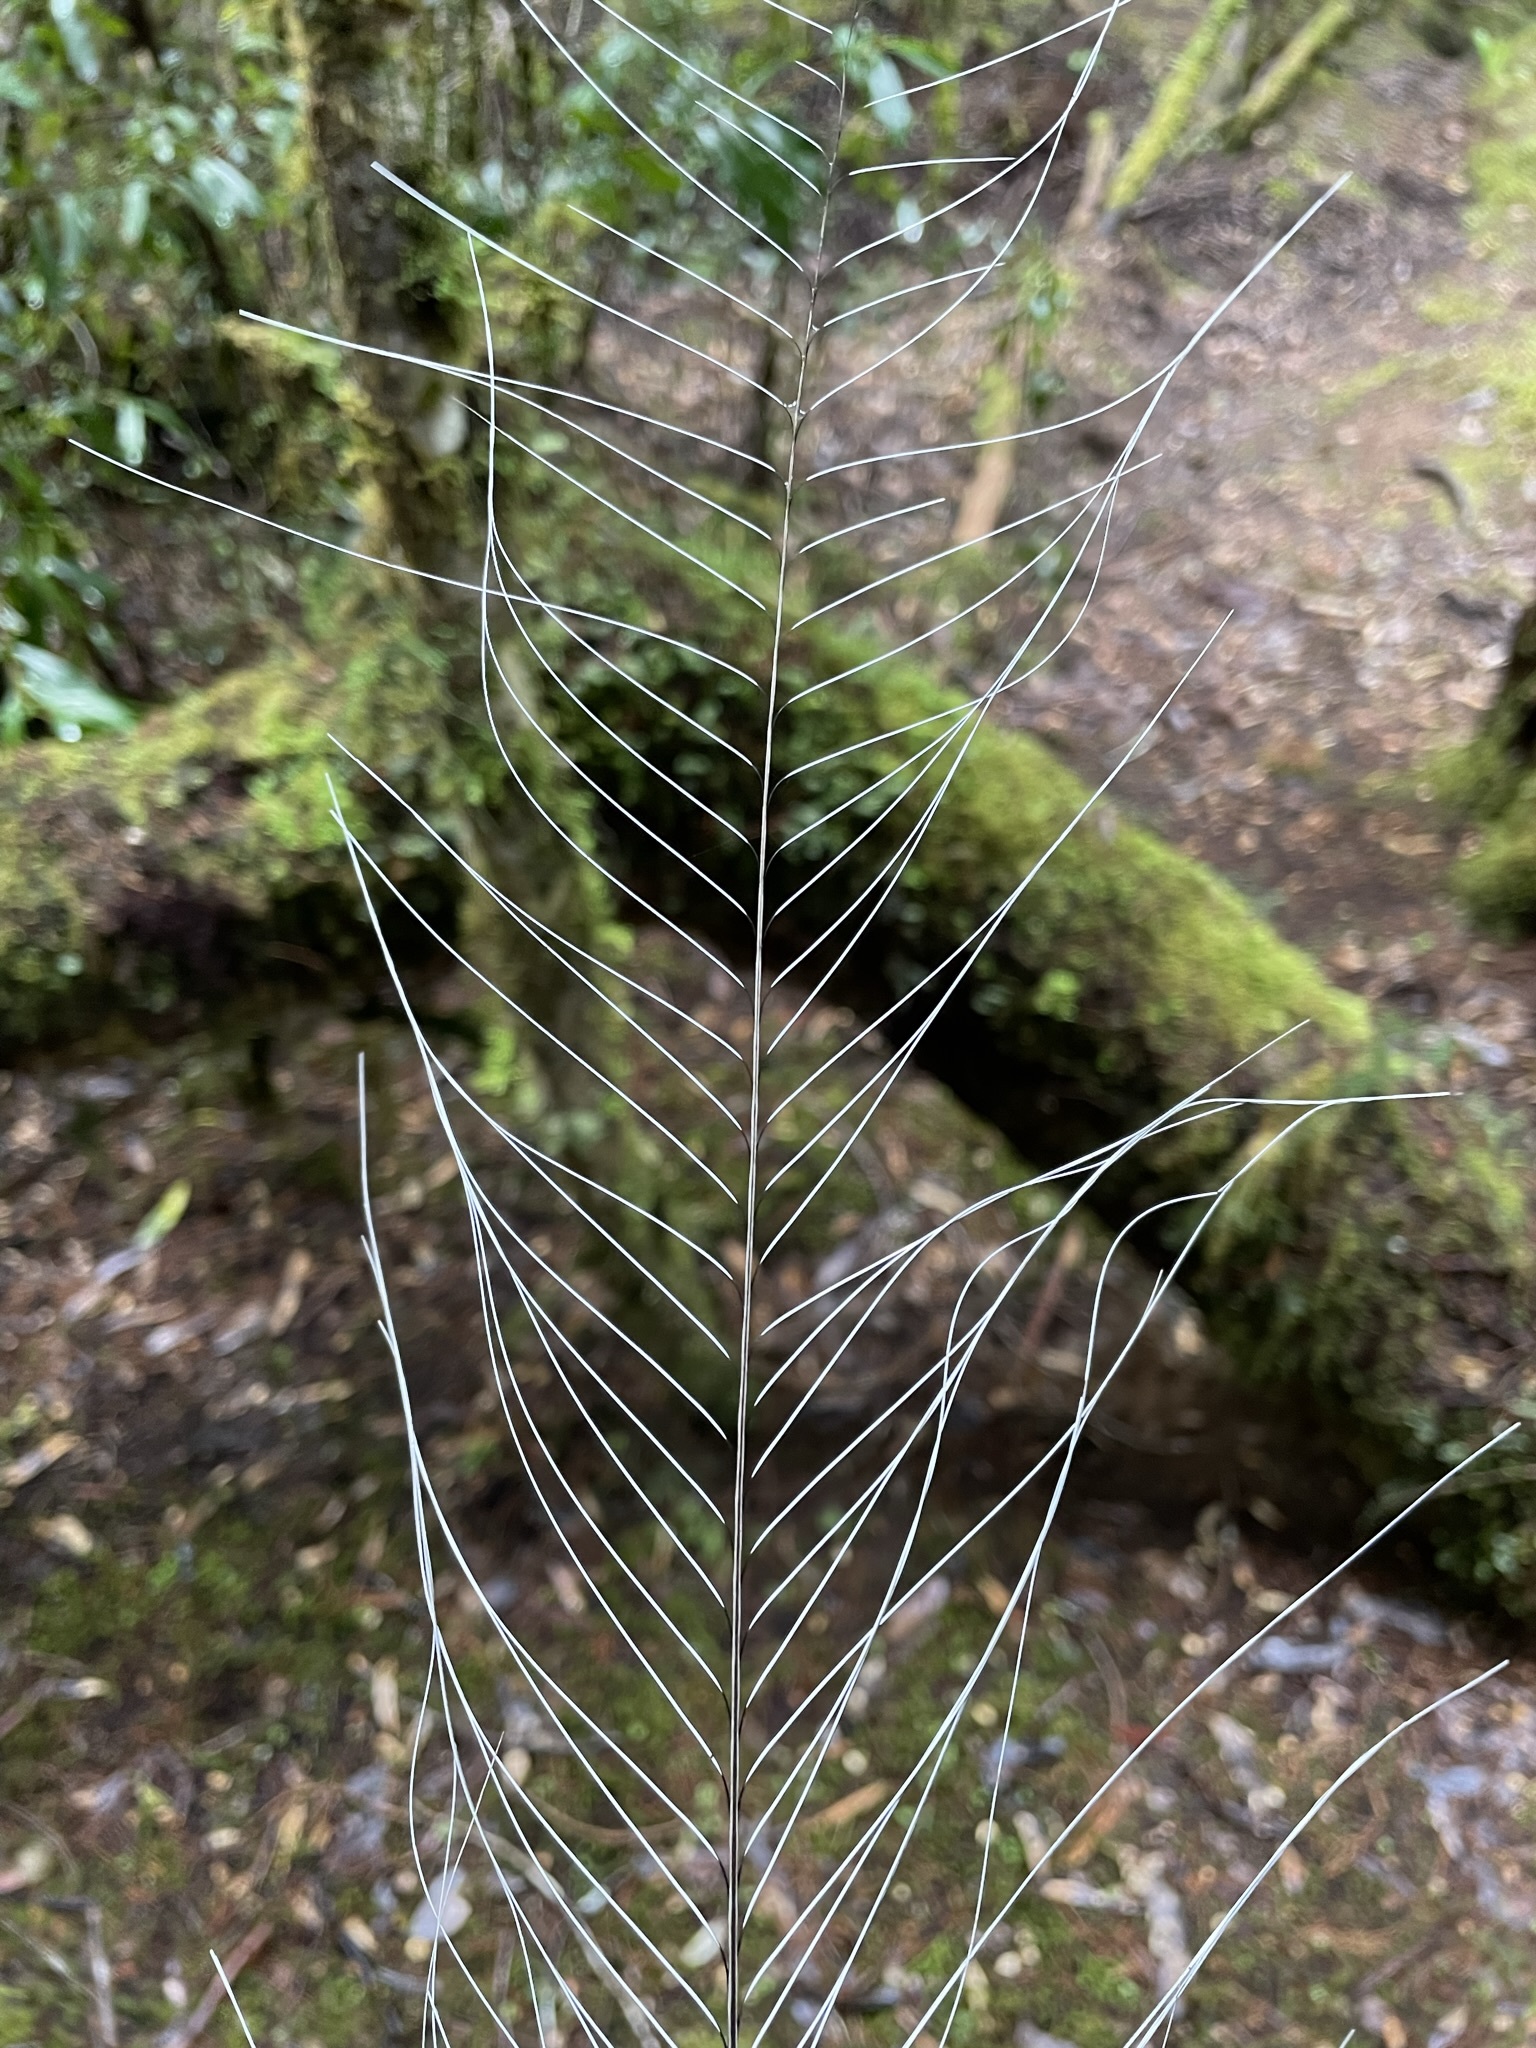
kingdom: Animalia
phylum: Chordata
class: Aves
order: Passeriformes
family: Menuridae
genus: Menura
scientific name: Menura novaehollandiae
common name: Superb lyrebird
